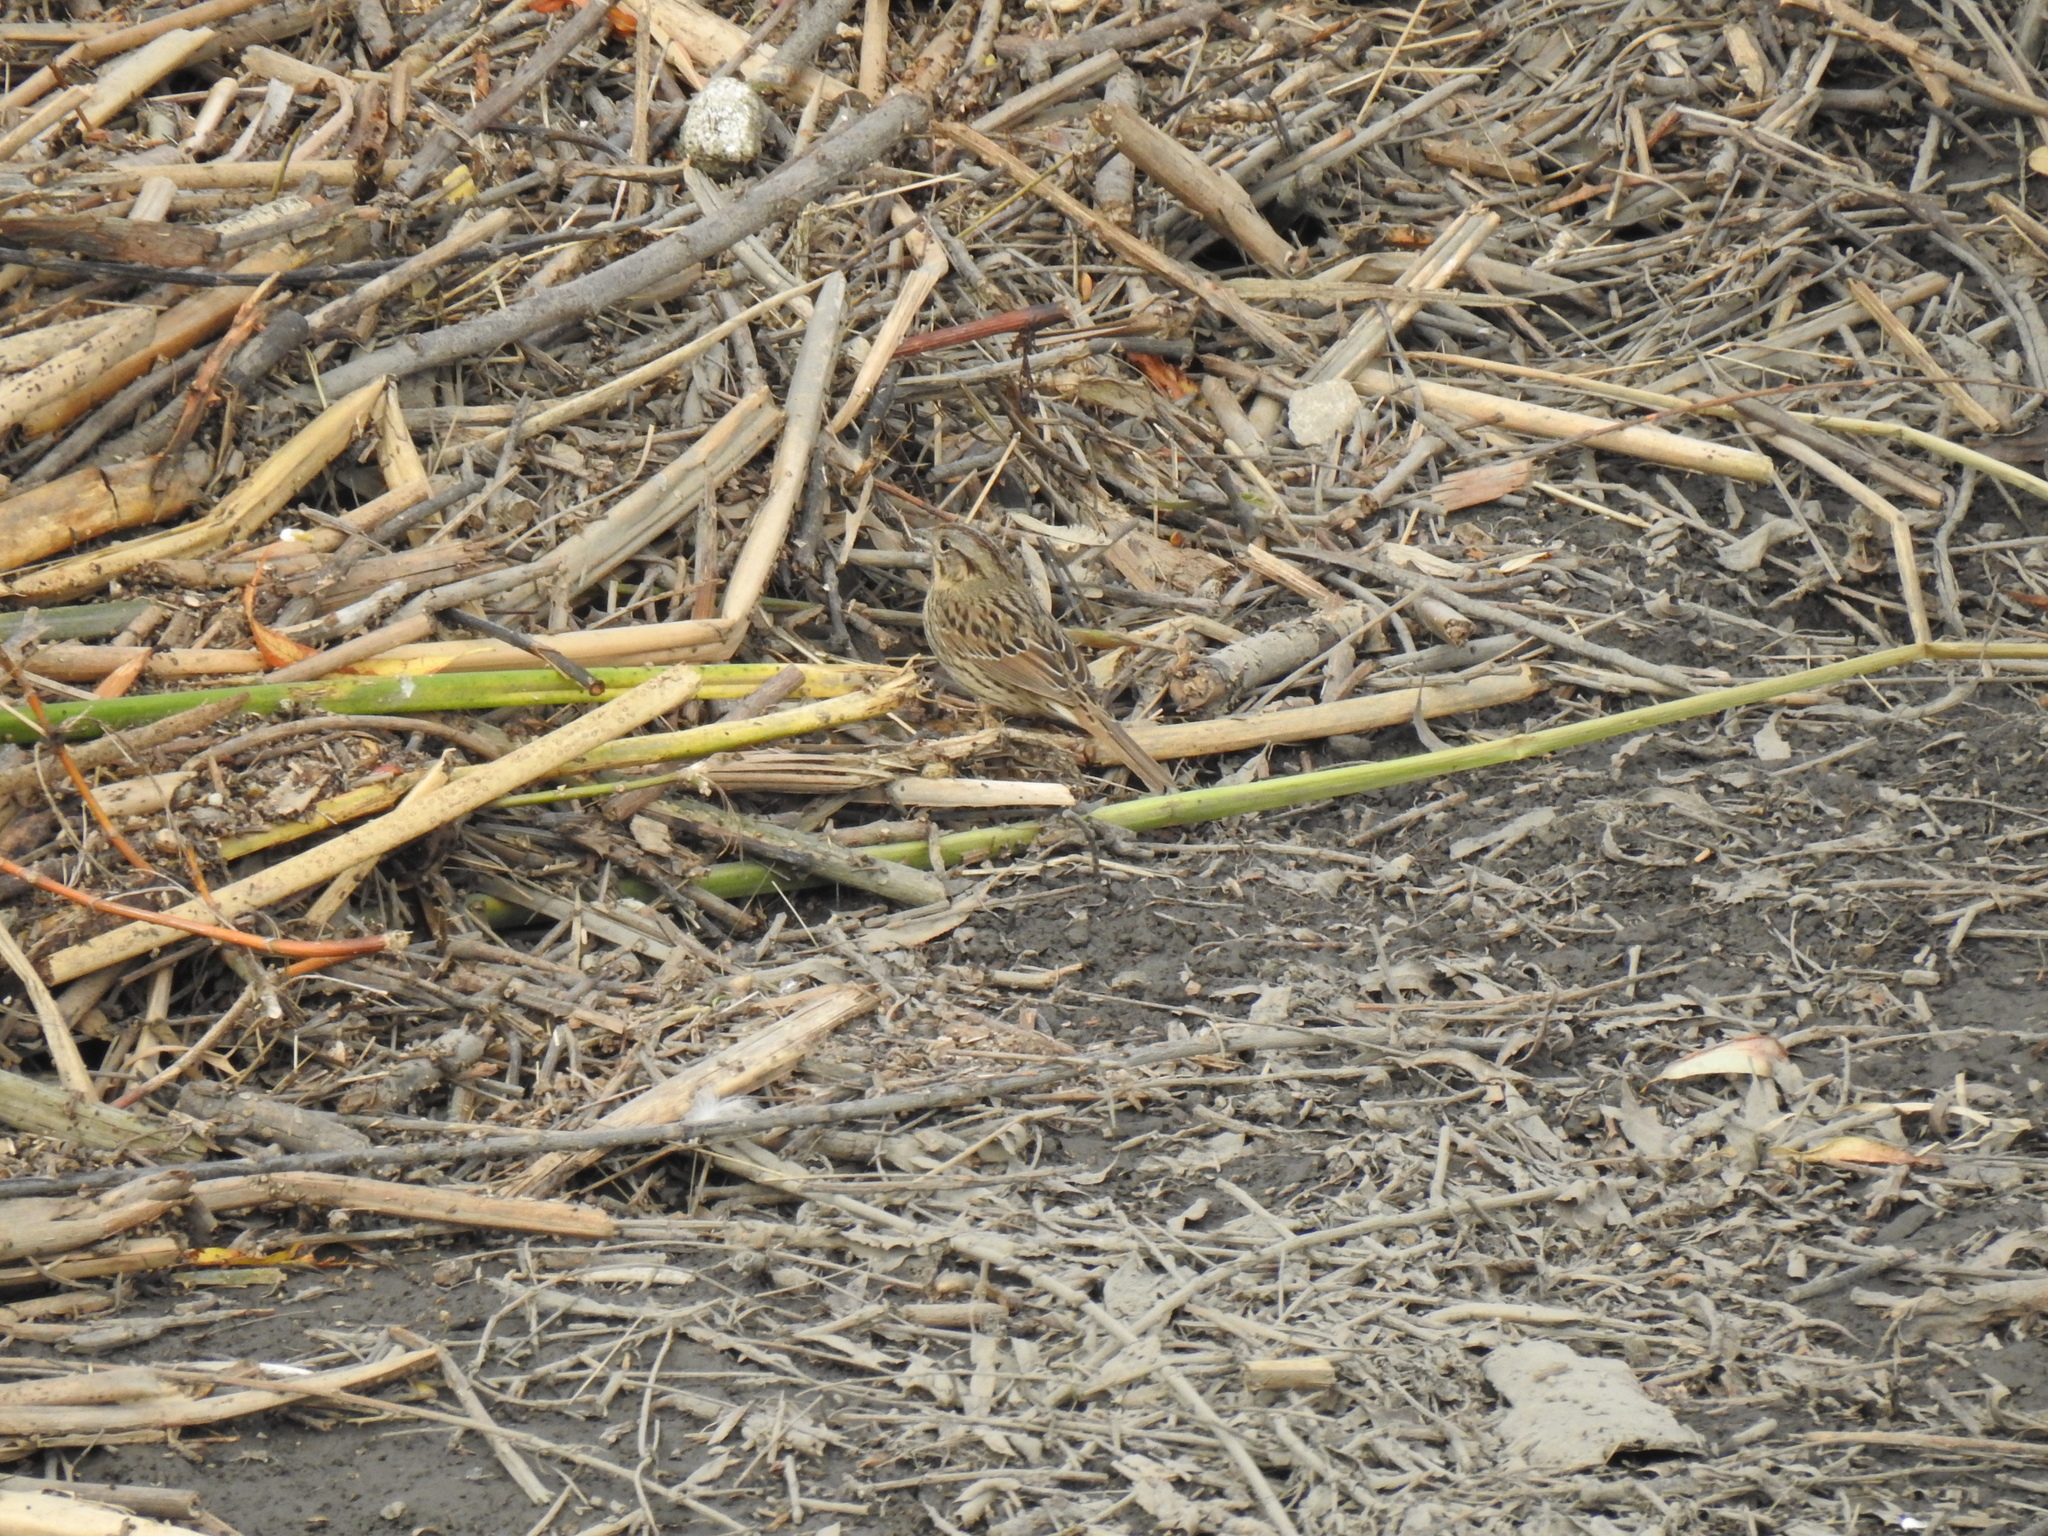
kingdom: Animalia
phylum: Chordata
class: Aves
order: Passeriformes
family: Passerellidae
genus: Melospiza
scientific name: Melospiza lincolnii
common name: Lincoln's sparrow
